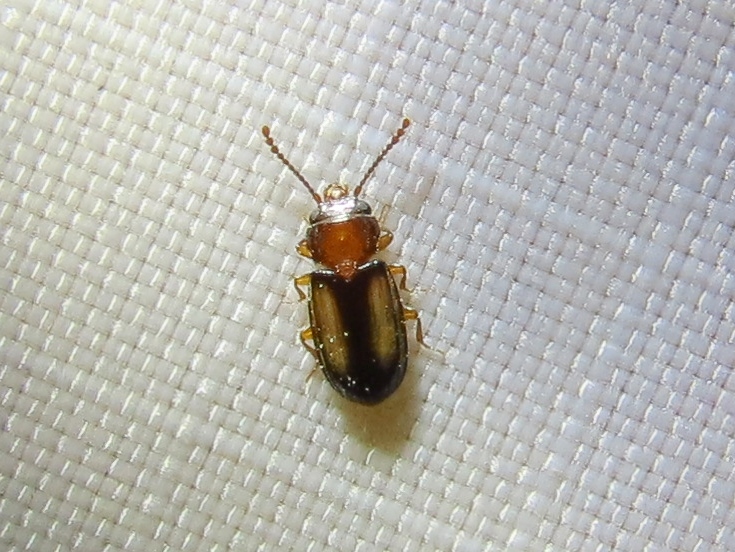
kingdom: Animalia
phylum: Arthropoda
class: Insecta
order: Coleoptera
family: Laemophloeidae
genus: Laemophloeus
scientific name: Laemophloeus terminalis
